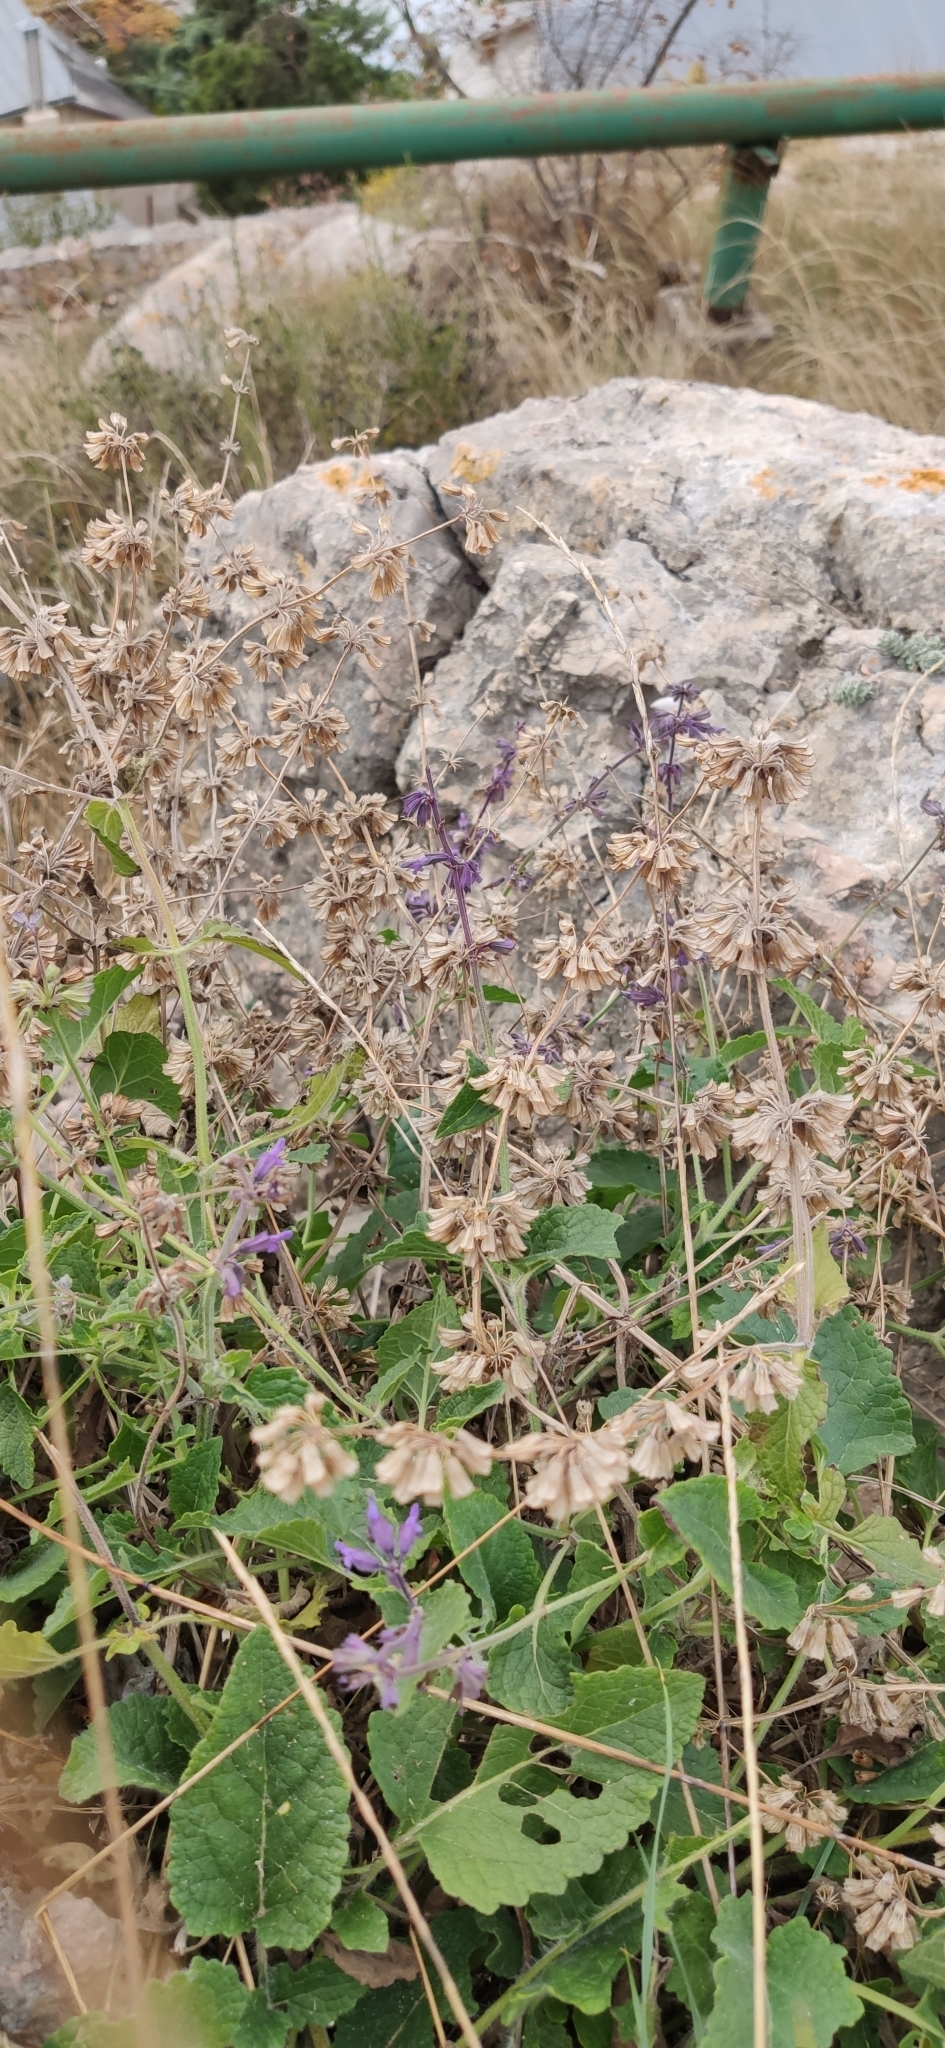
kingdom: Plantae
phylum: Tracheophyta
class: Magnoliopsida
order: Lamiales
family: Lamiaceae
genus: Salvia
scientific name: Salvia verticillata
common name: Whorled clary
